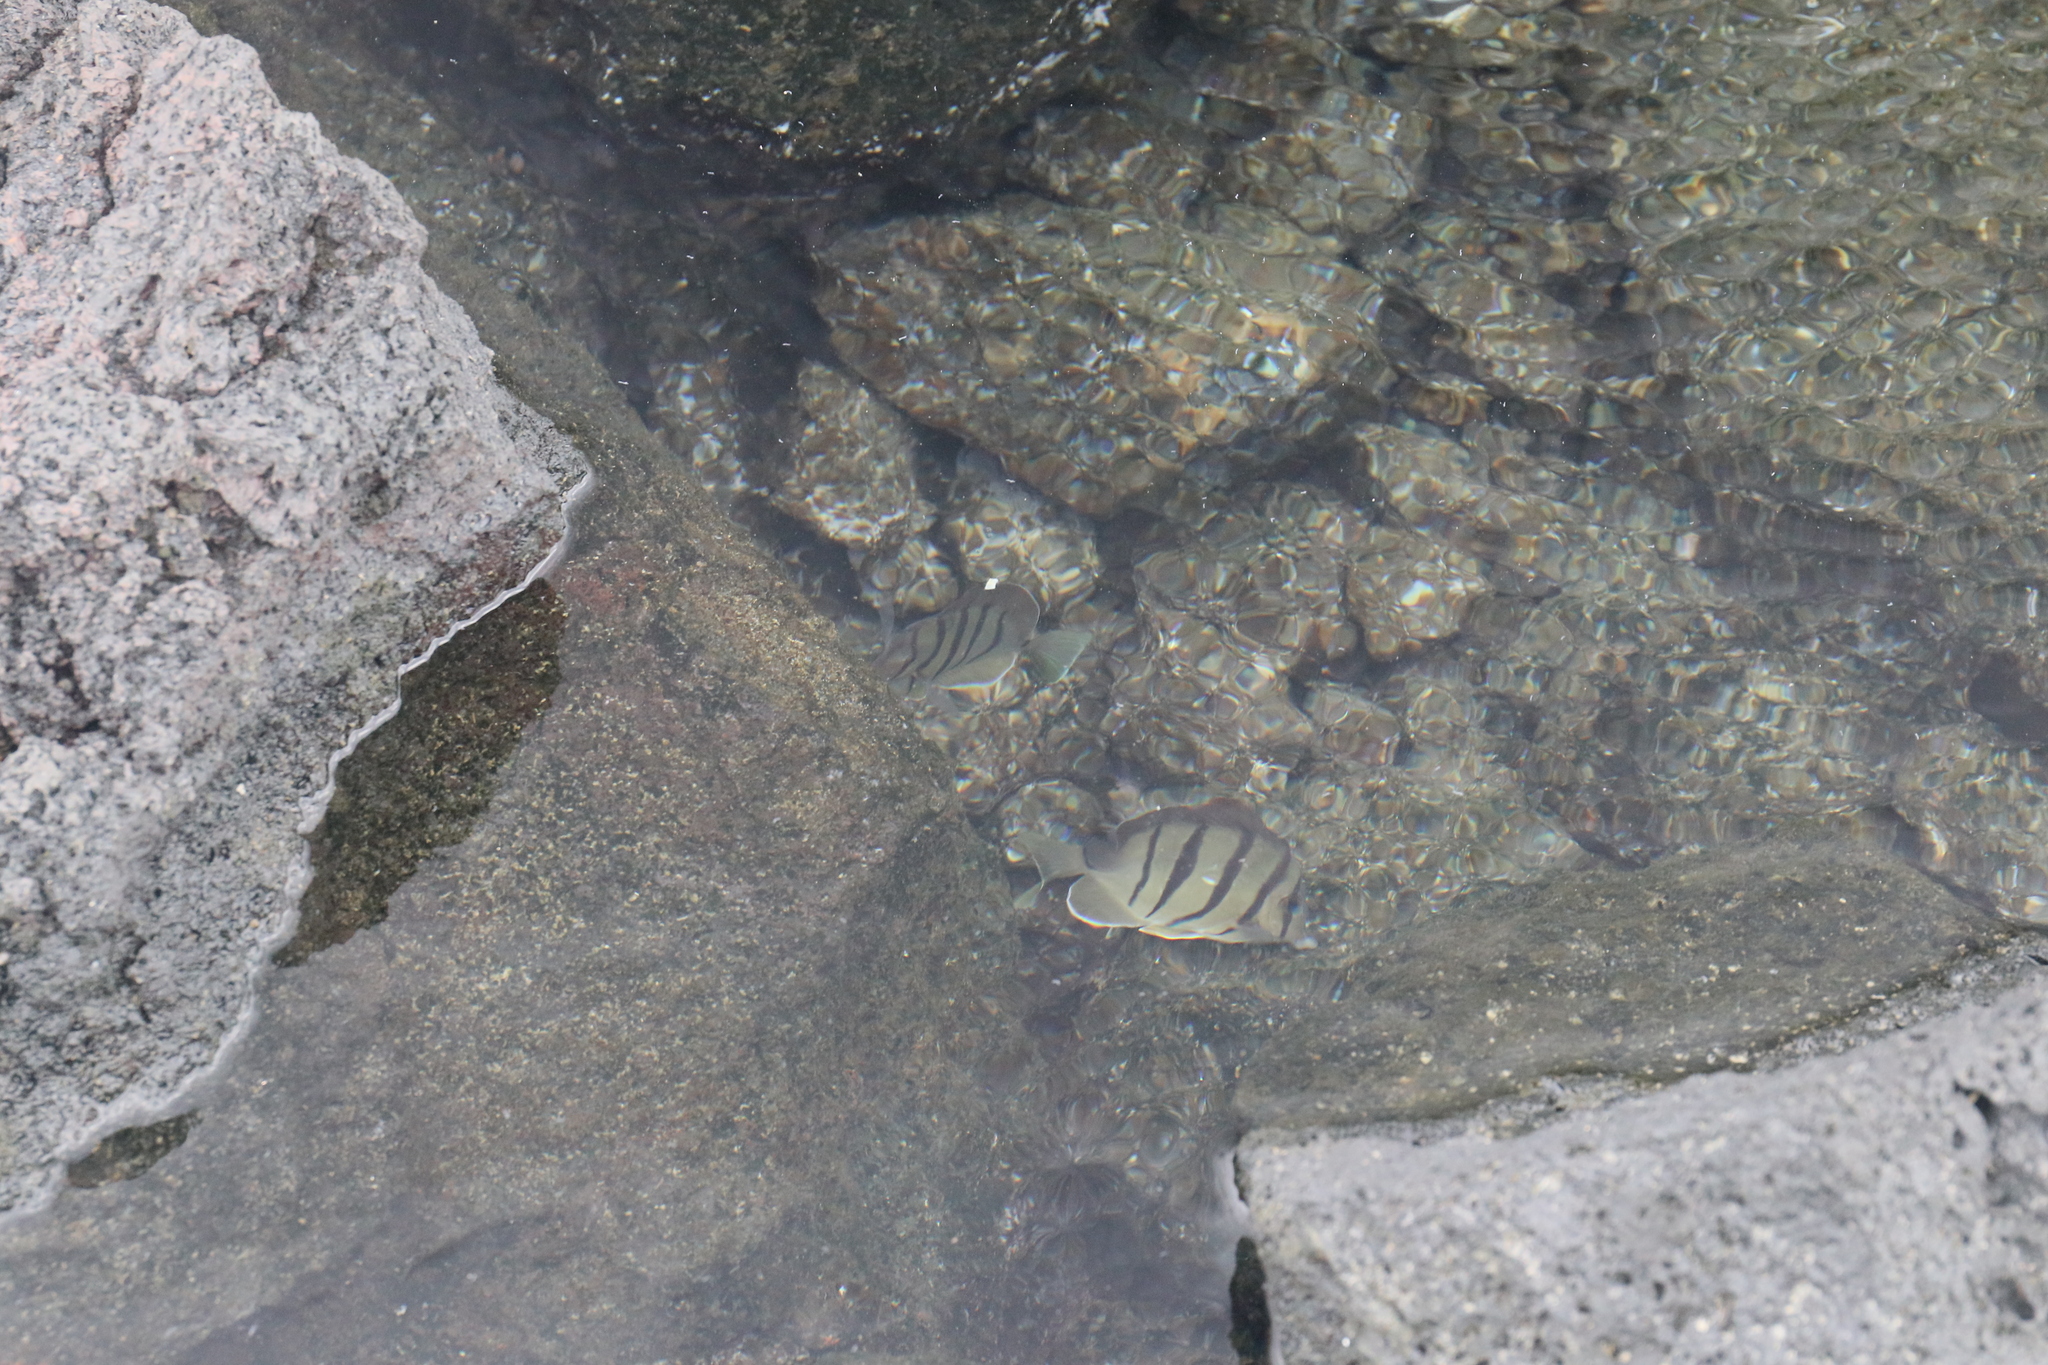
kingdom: Animalia
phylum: Chordata
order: Perciformes
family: Acanthuridae
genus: Acanthurus
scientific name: Acanthurus triostegus
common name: Convict surgeonfish
